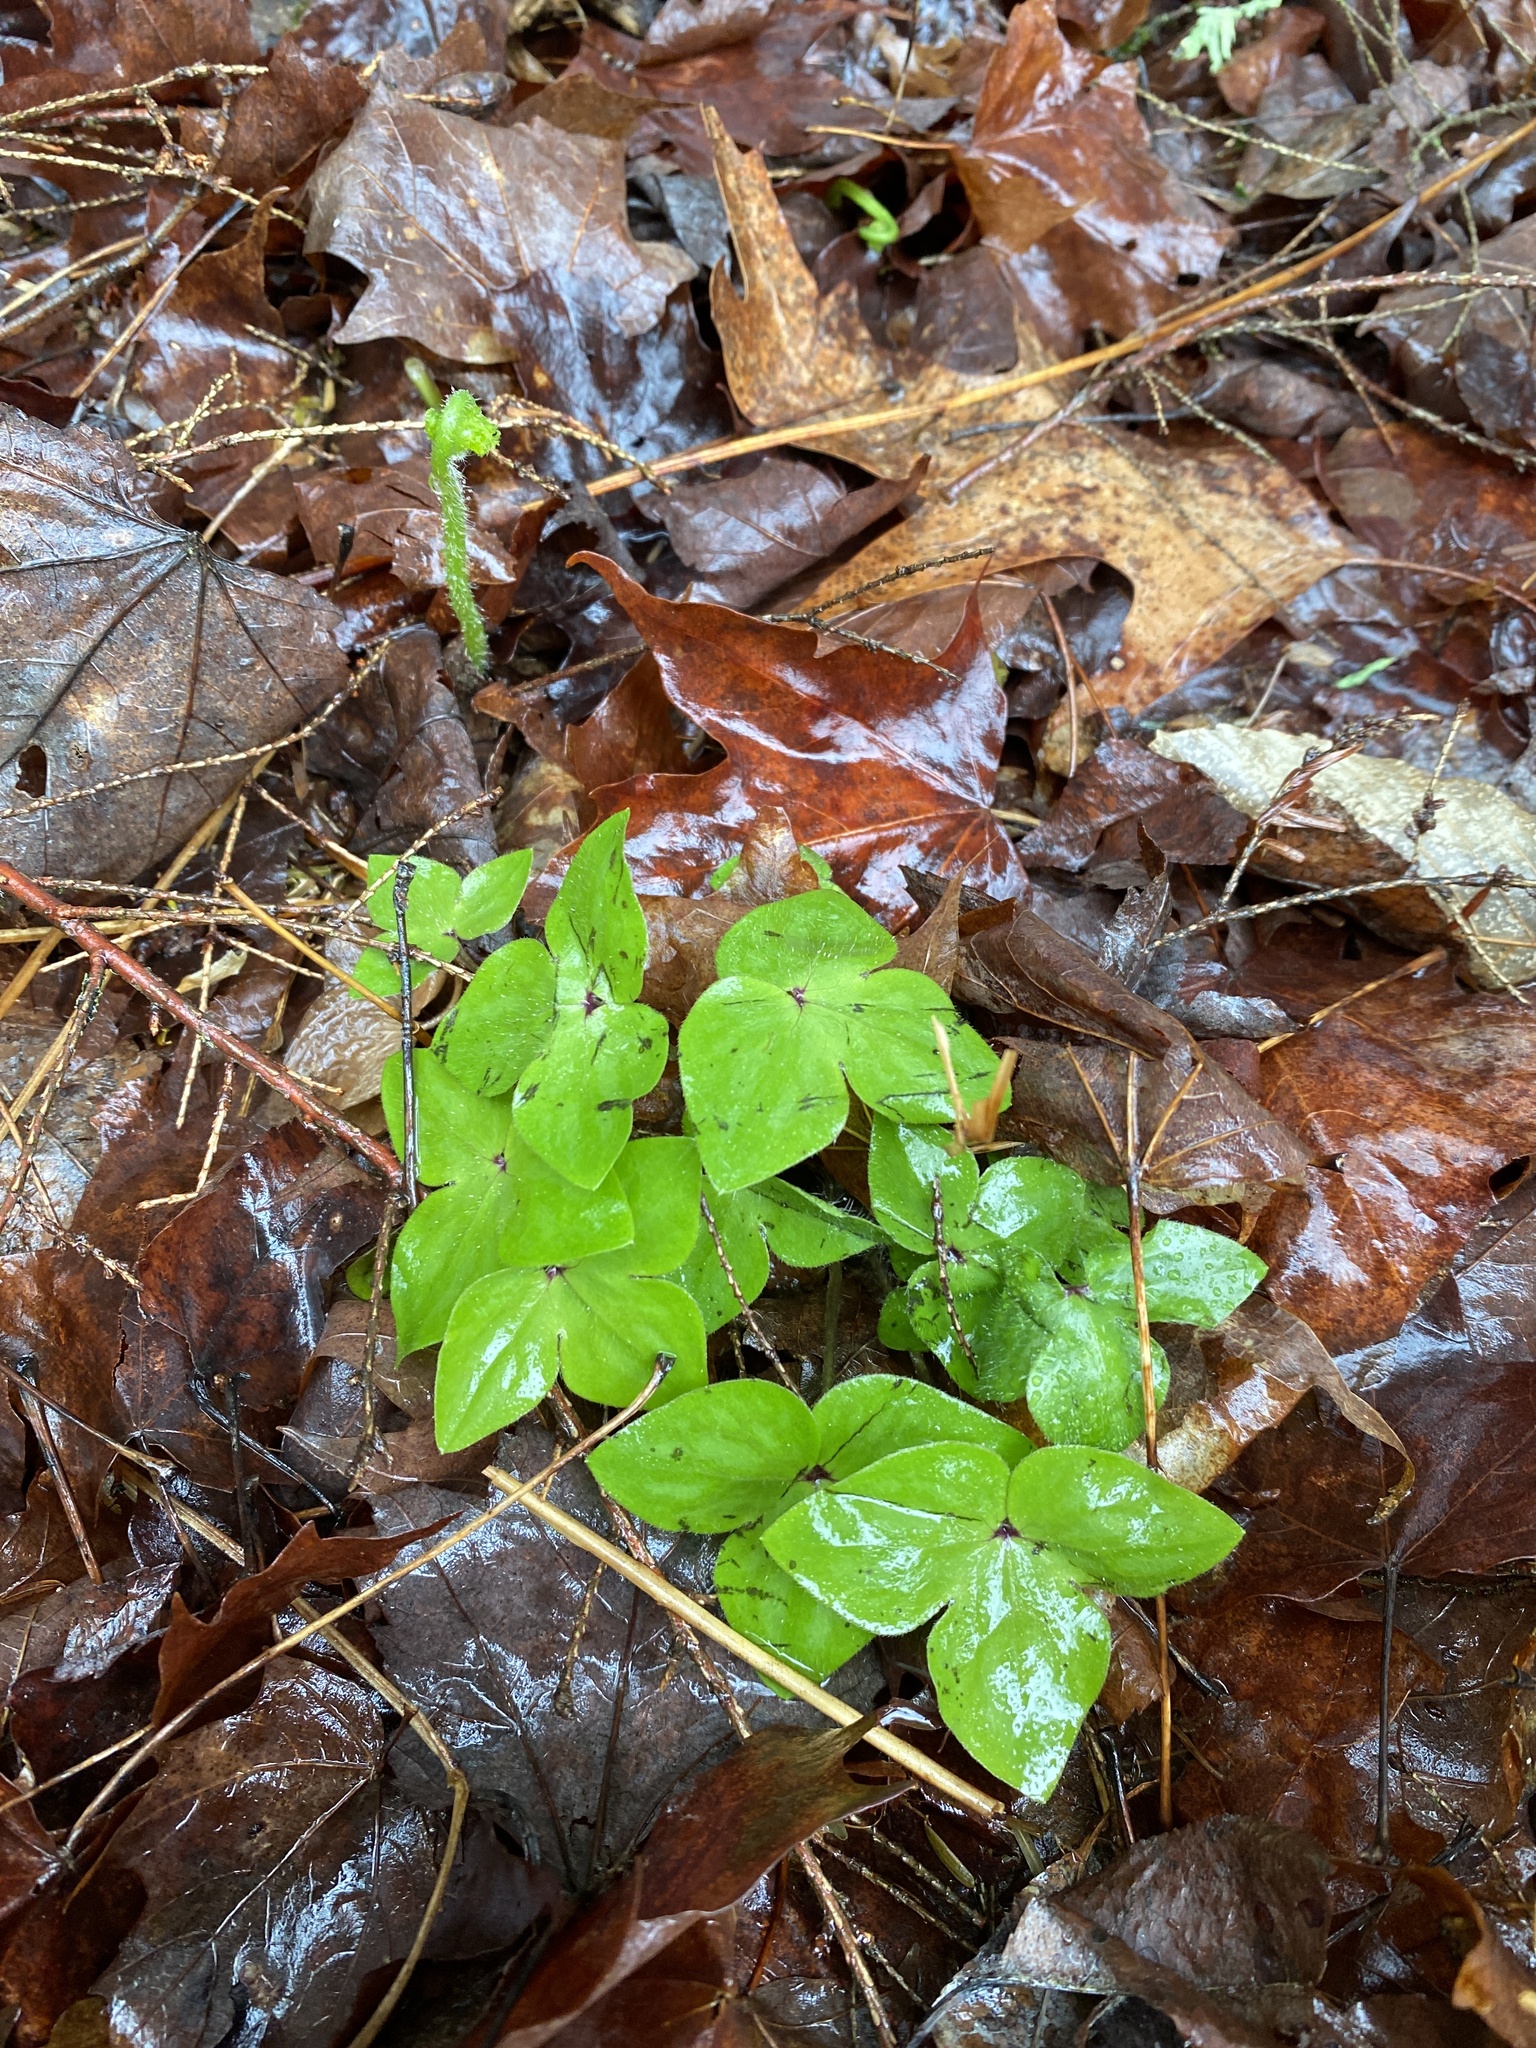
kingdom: Plantae
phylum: Tracheophyta
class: Magnoliopsida
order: Ranunculales
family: Ranunculaceae
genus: Hepatica
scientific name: Hepatica acutiloba
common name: Sharp-lobed hepatica
